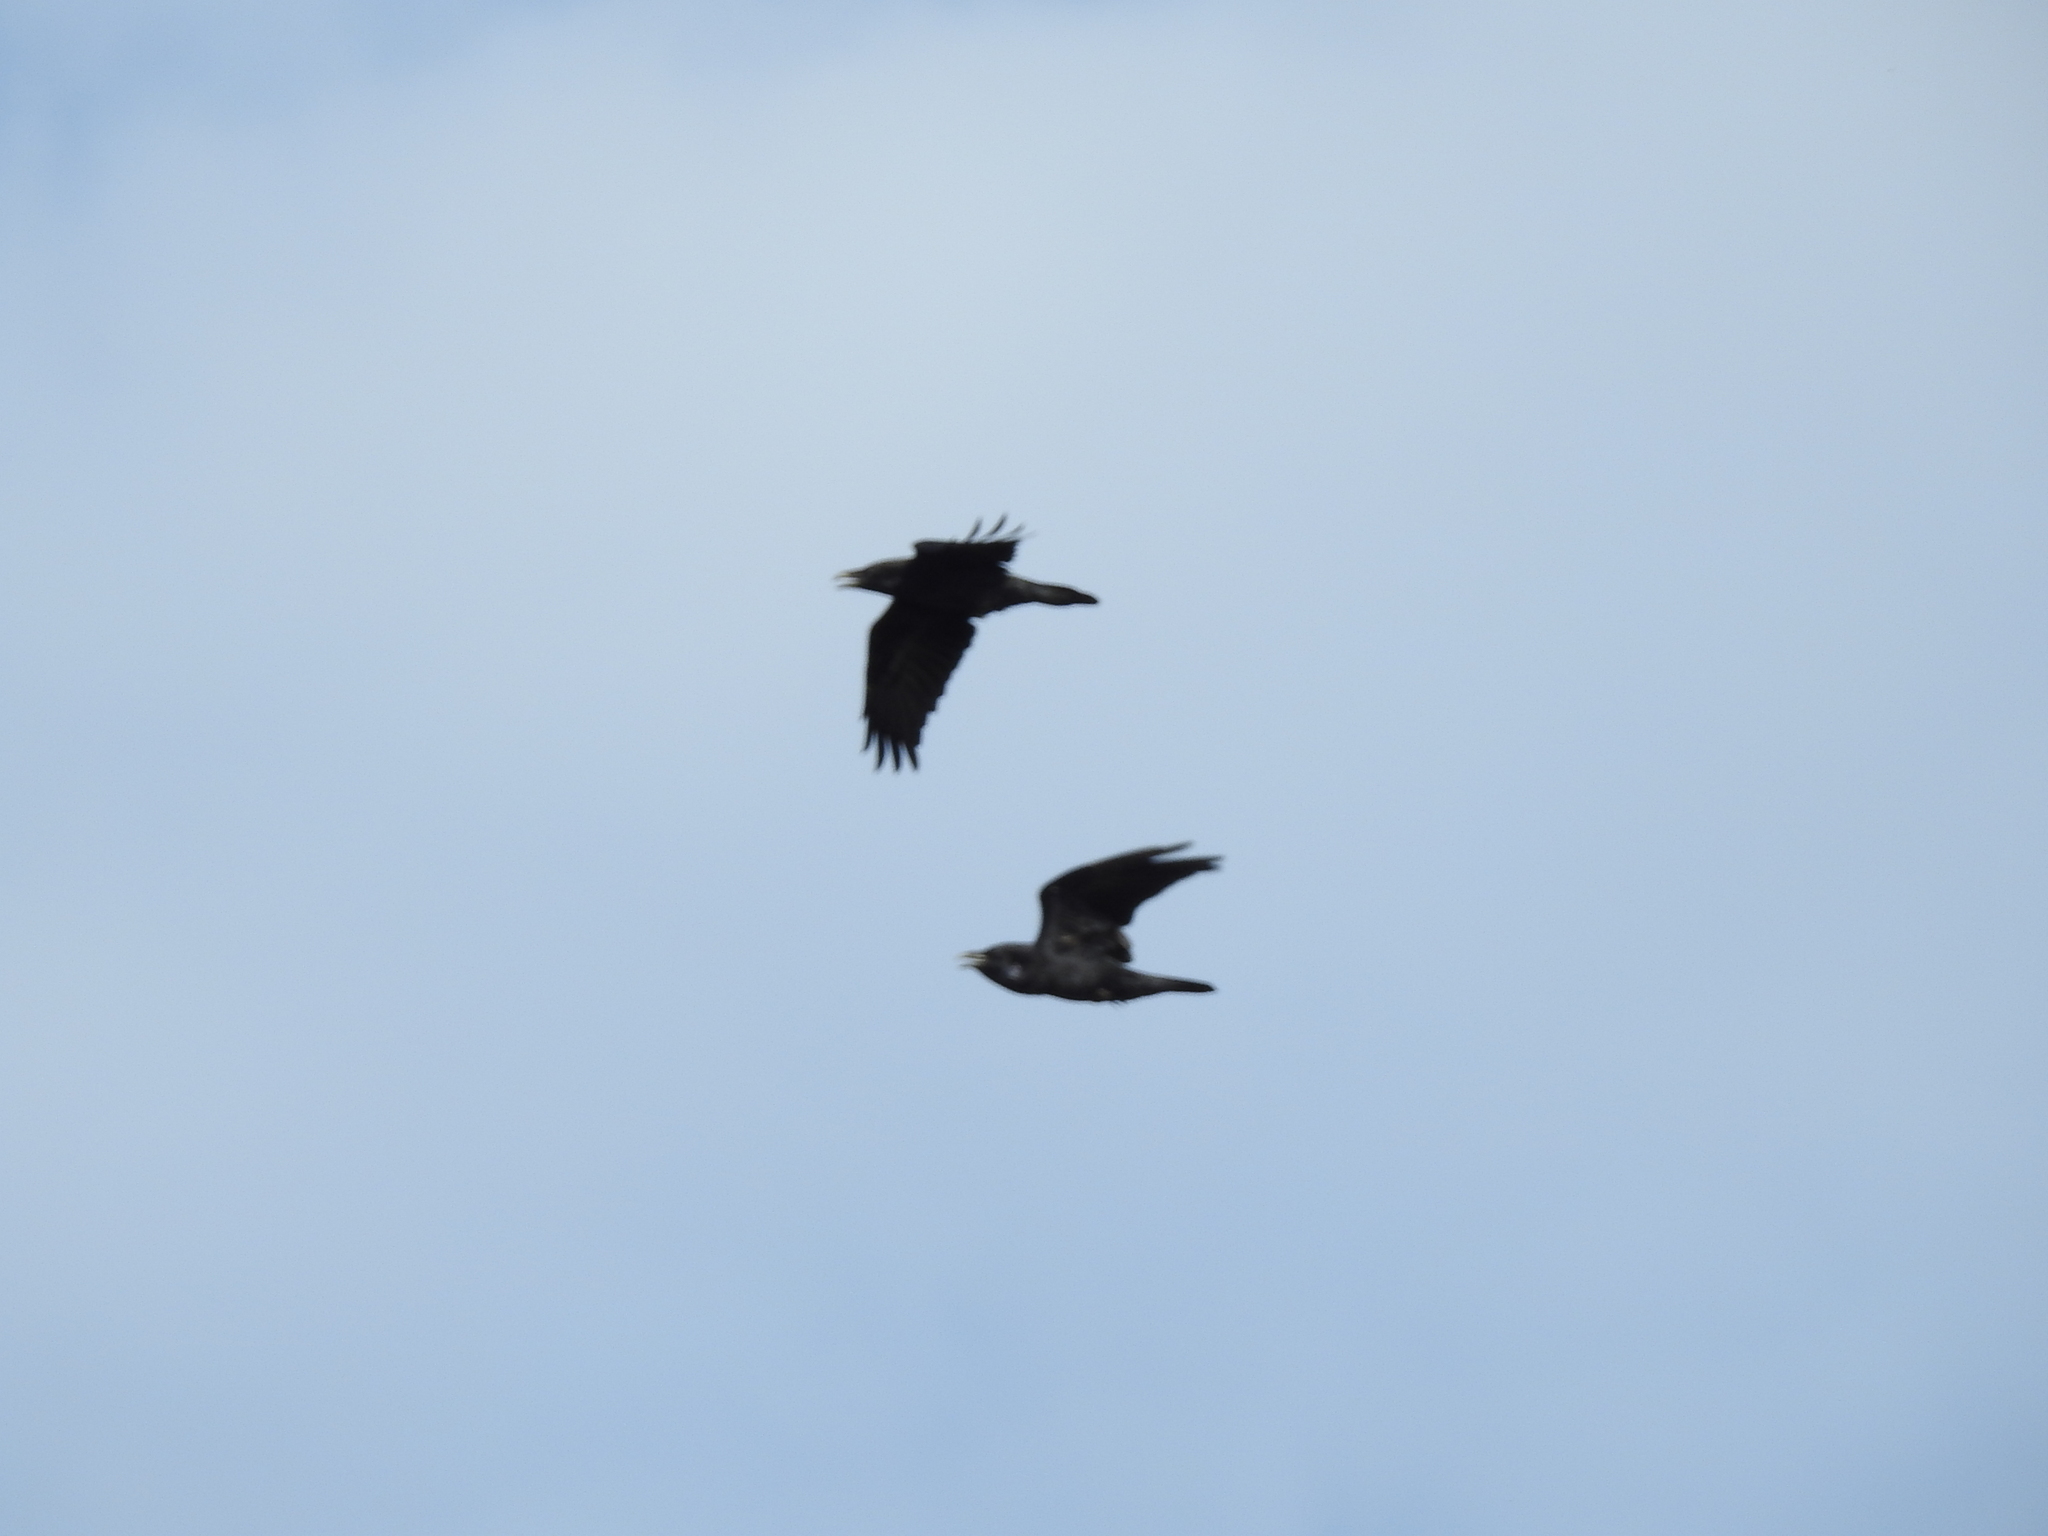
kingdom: Animalia
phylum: Chordata
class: Aves
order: Passeriformes
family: Corvidae
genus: Corvus
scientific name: Corvus corax
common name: Common raven
